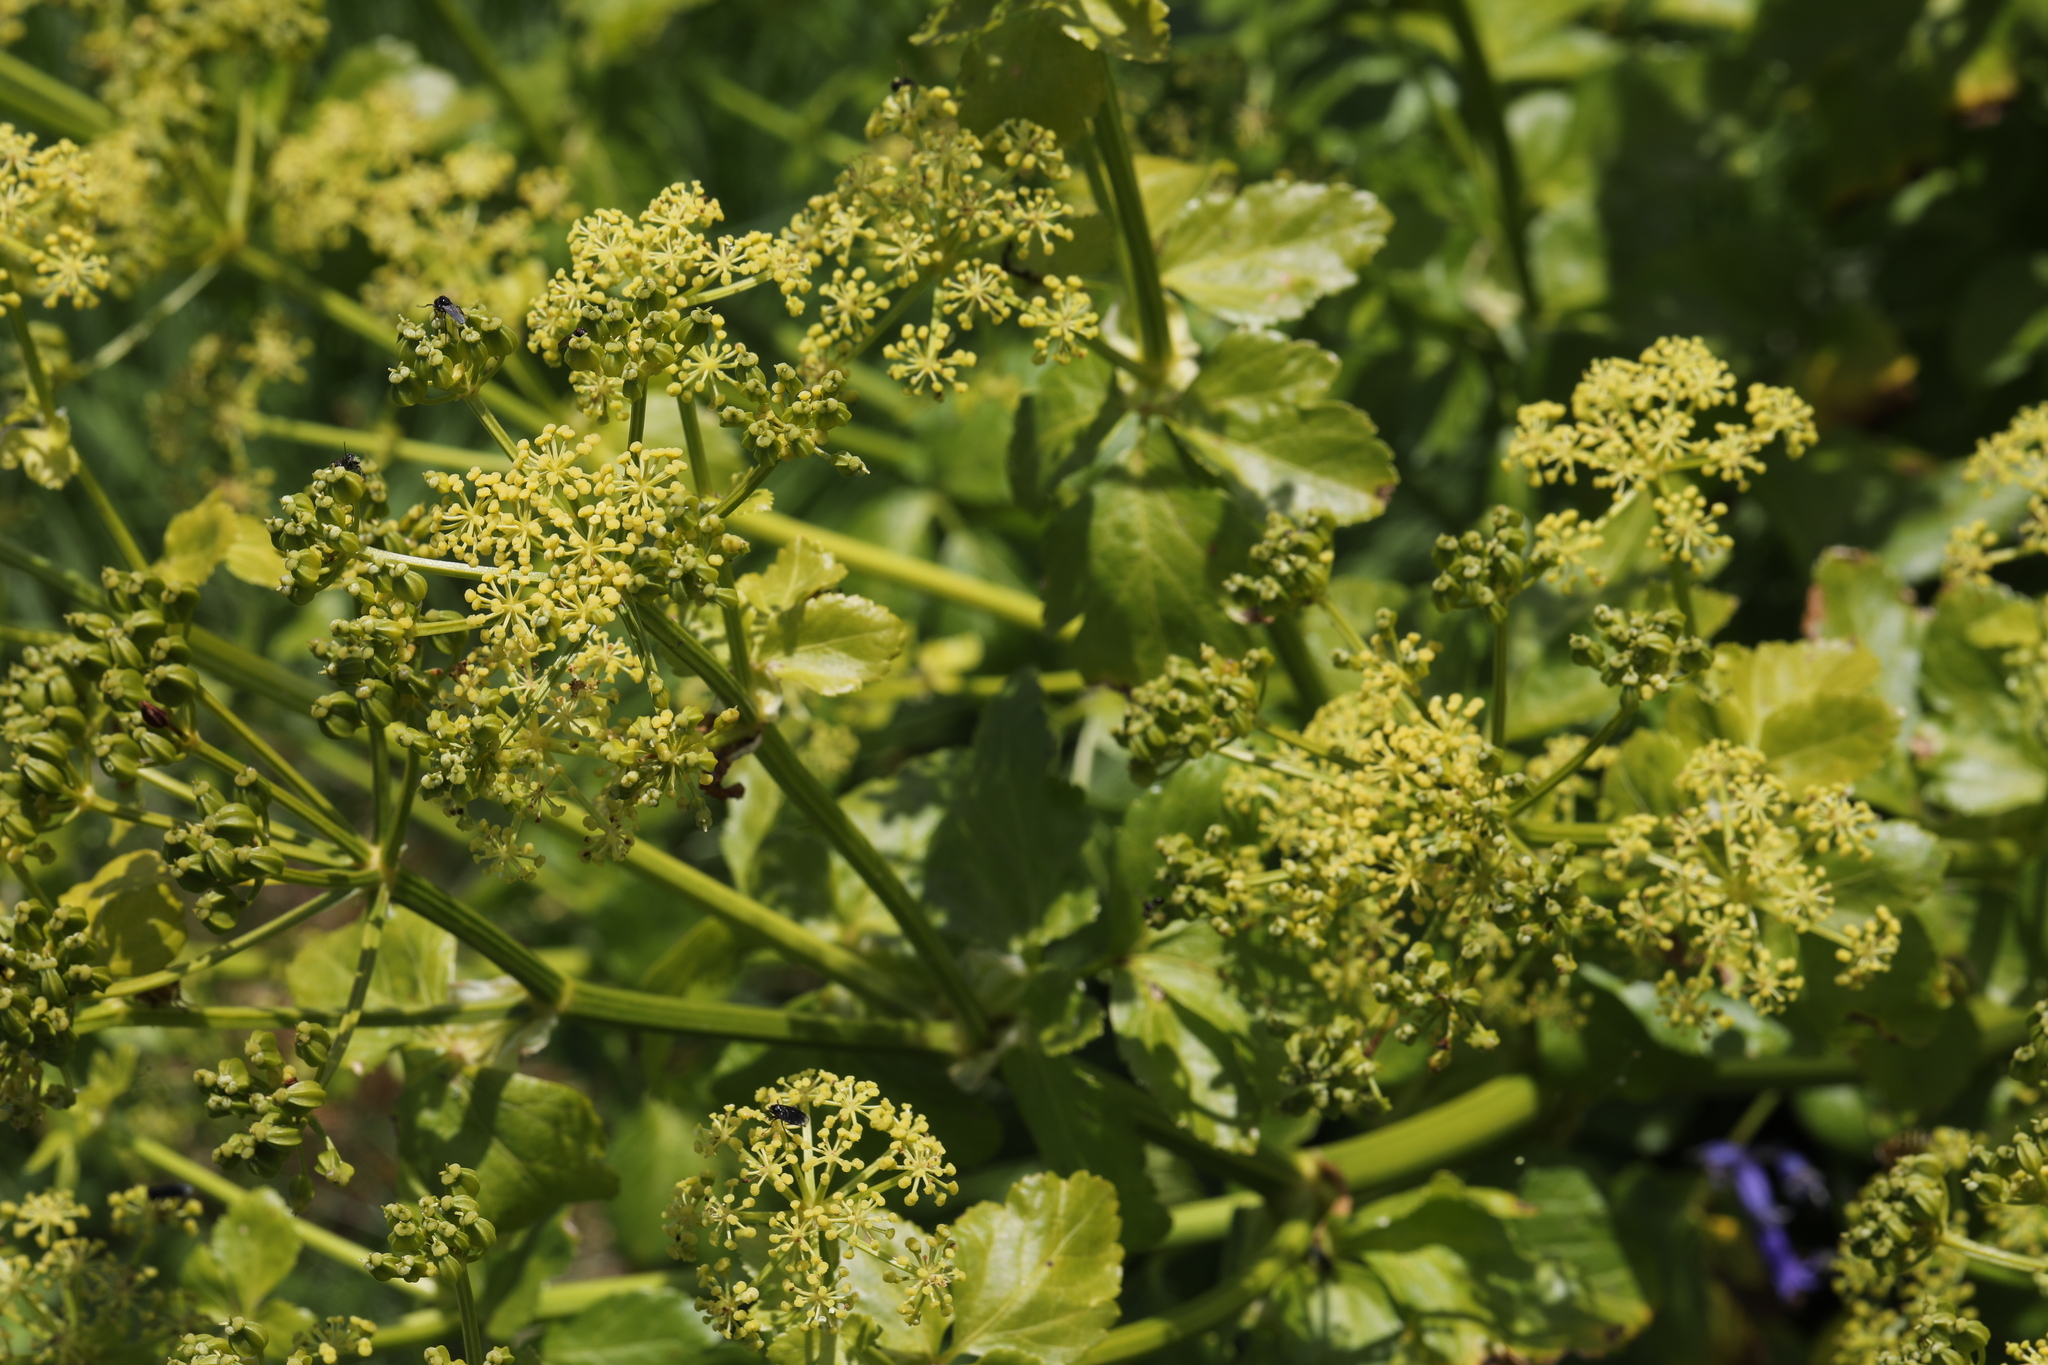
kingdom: Plantae
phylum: Tracheophyta
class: Magnoliopsida
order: Apiales
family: Apiaceae
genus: Smyrnium
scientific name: Smyrnium olusatrum
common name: Alexanders
